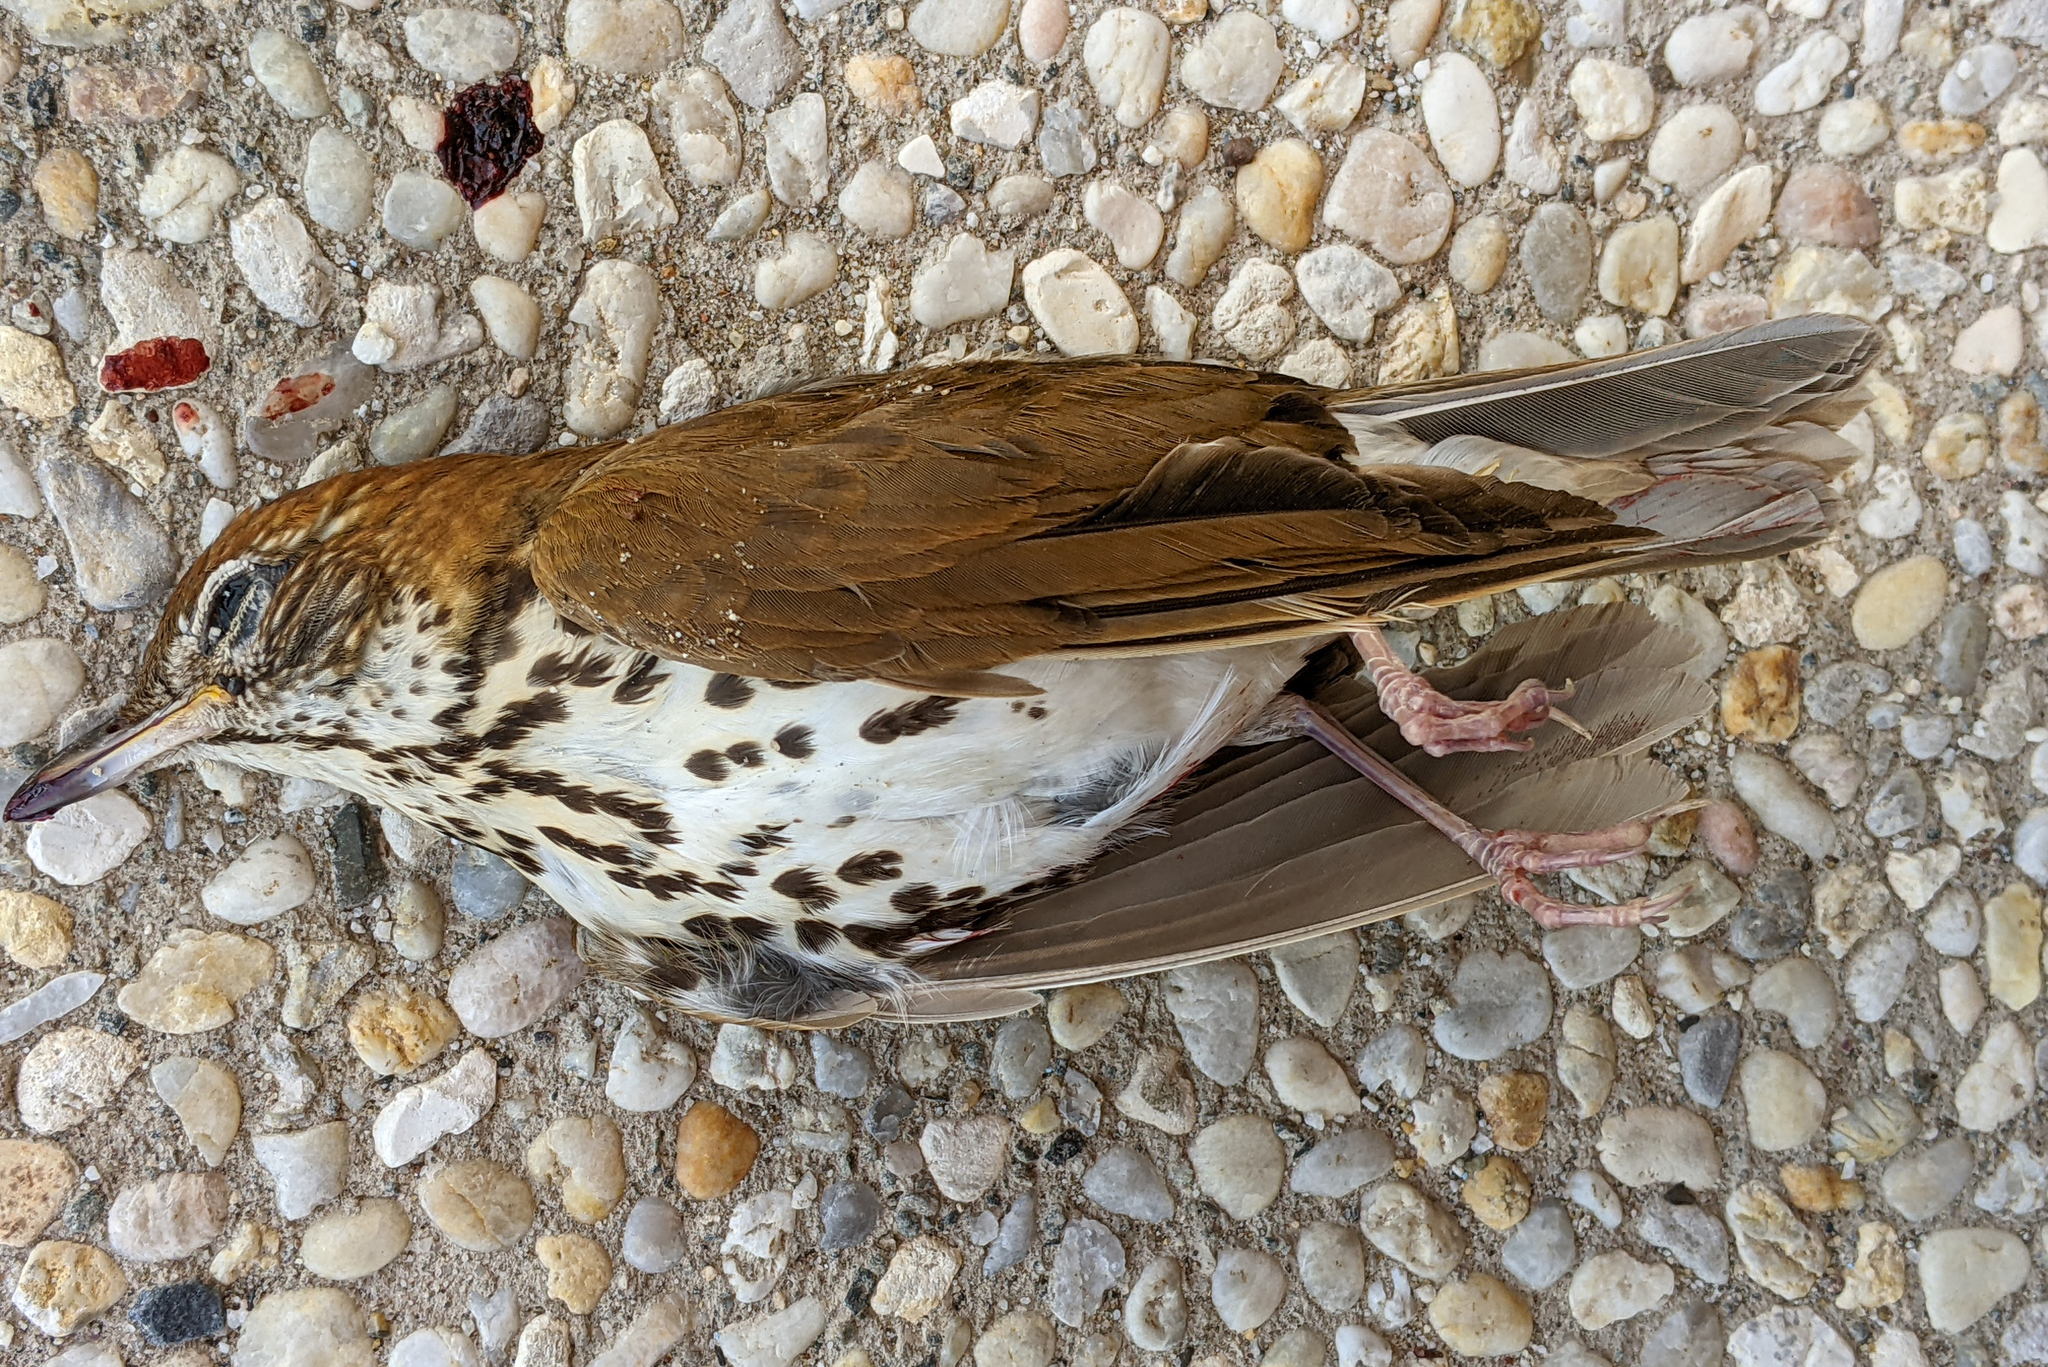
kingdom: Animalia
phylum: Chordata
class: Aves
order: Passeriformes
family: Turdidae
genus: Hylocichla
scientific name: Hylocichla mustelina
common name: Wood thrush
